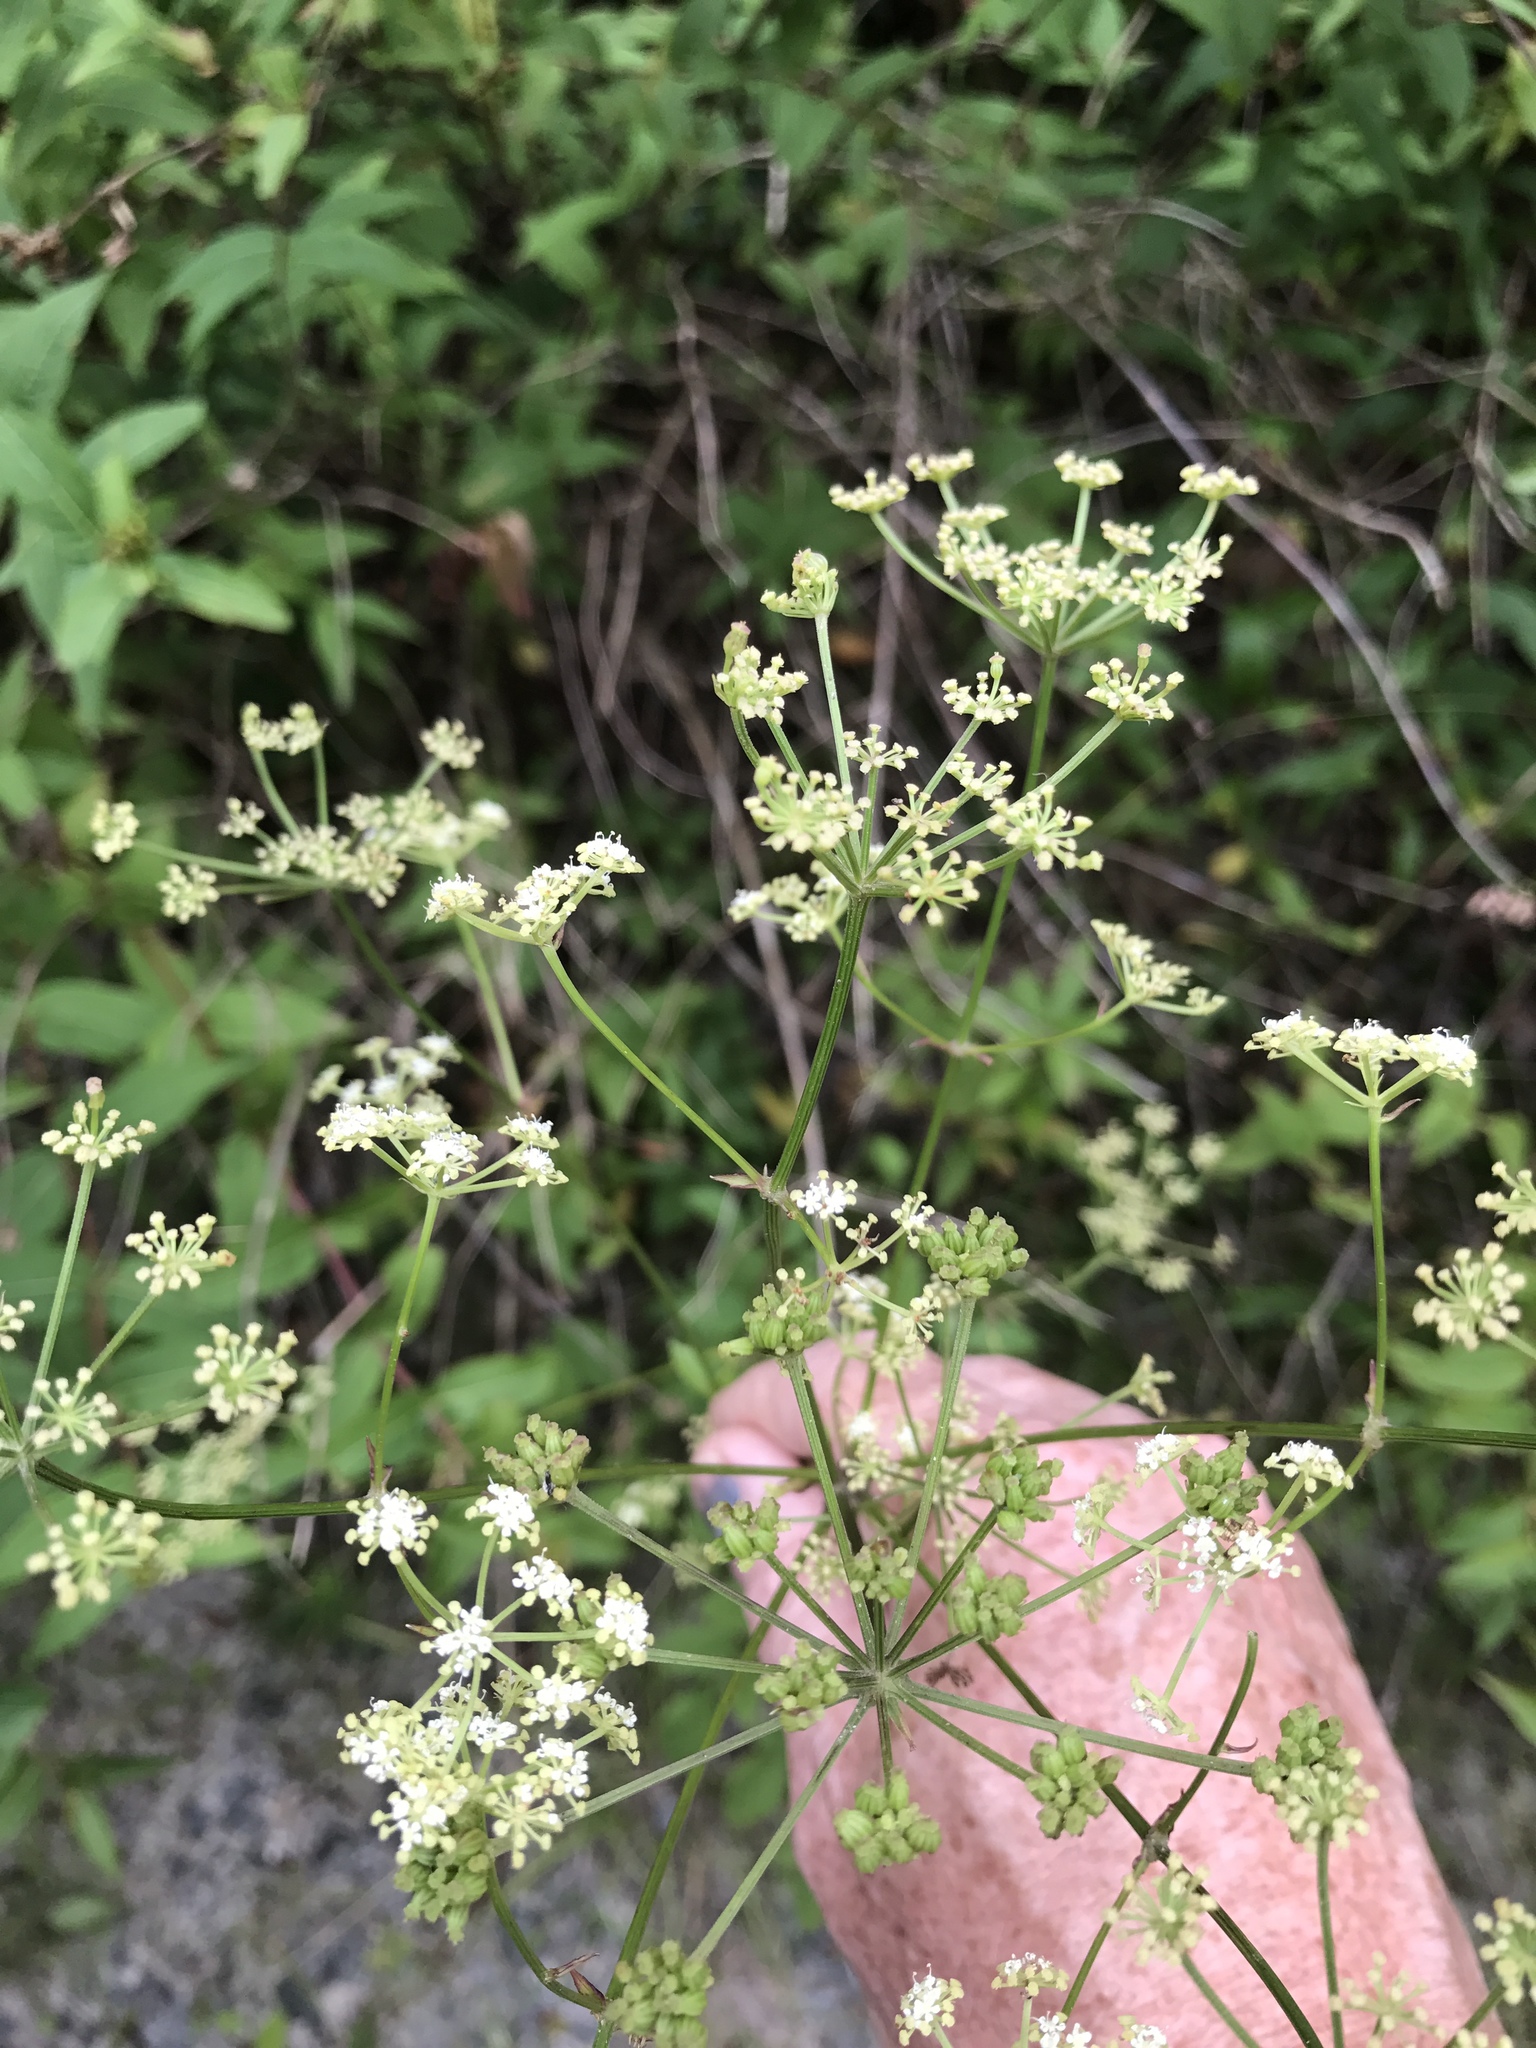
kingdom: Plantae
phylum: Tracheophyta
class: Magnoliopsida
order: Apiales
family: Apiaceae
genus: Ligusticum
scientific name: Ligusticum canadense
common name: American lovage
